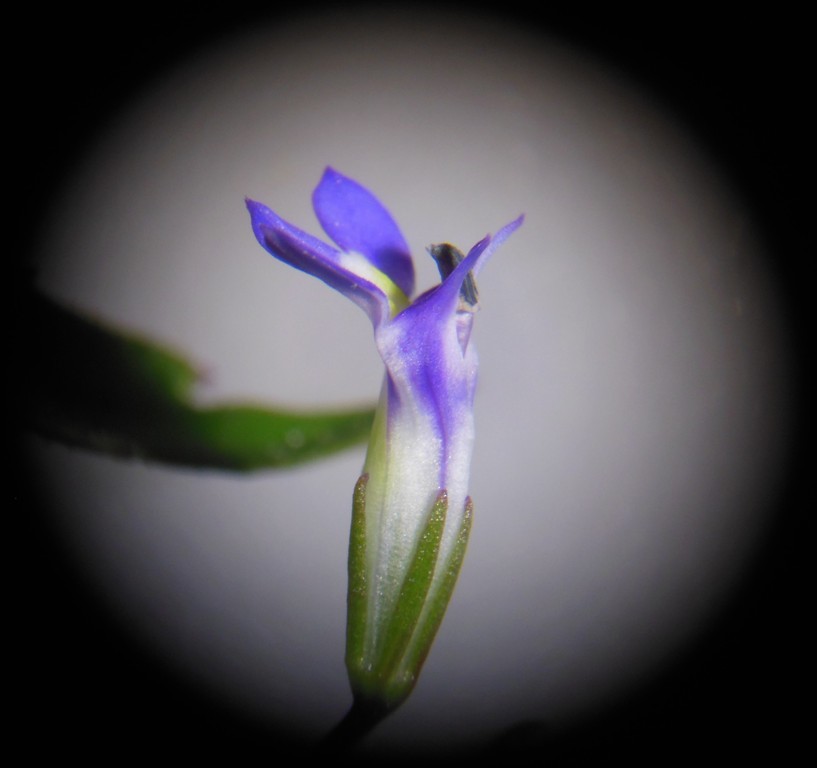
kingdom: Plantae
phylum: Tracheophyta
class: Magnoliopsida
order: Asterales
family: Campanulaceae
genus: Lobelia
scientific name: Lobelia longicaulis
